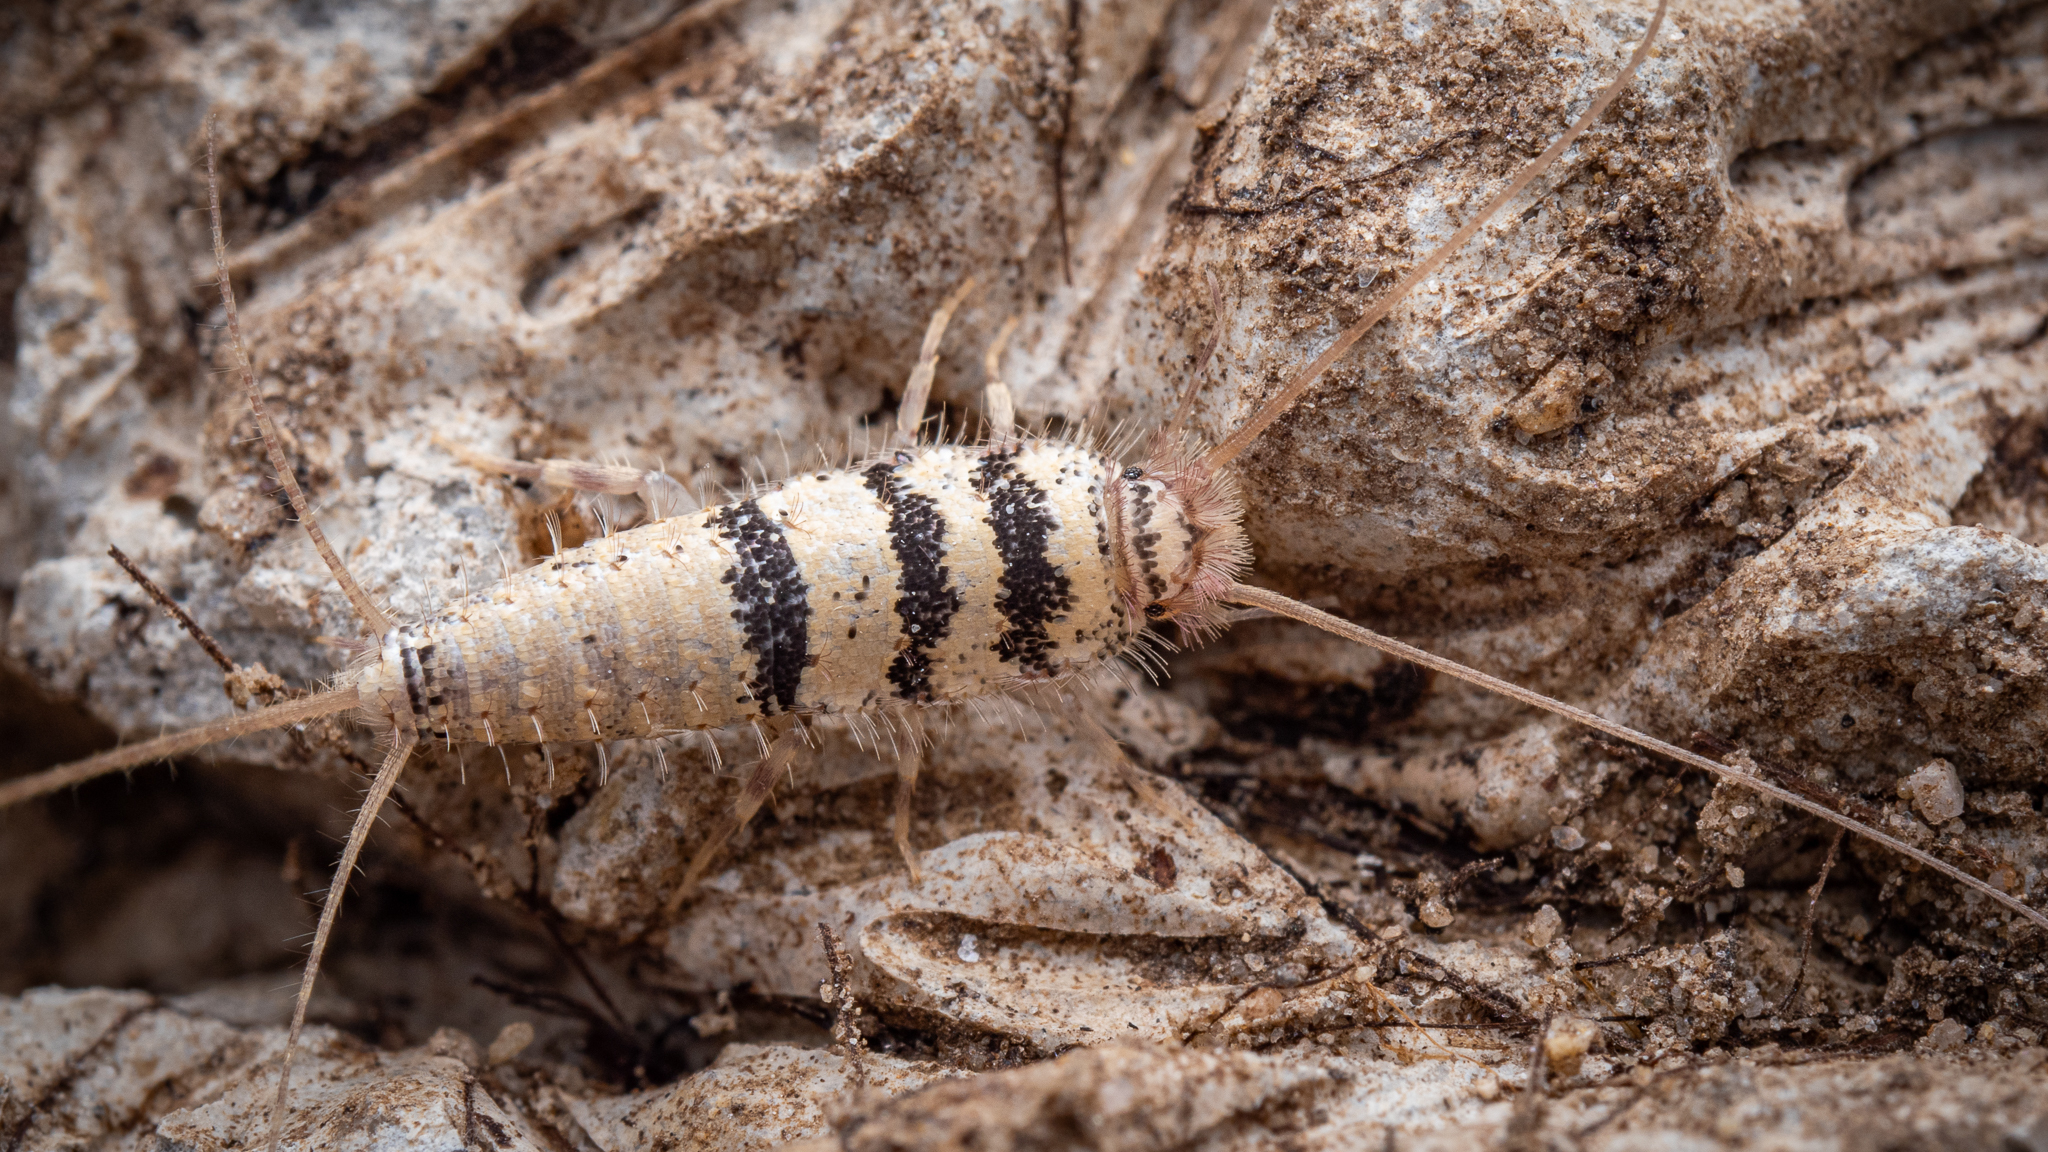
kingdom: Animalia
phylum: Arthropoda
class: Insecta
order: Zygentoma
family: Lepismatidae
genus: Thermobia
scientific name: Thermobia aegyptiaca
